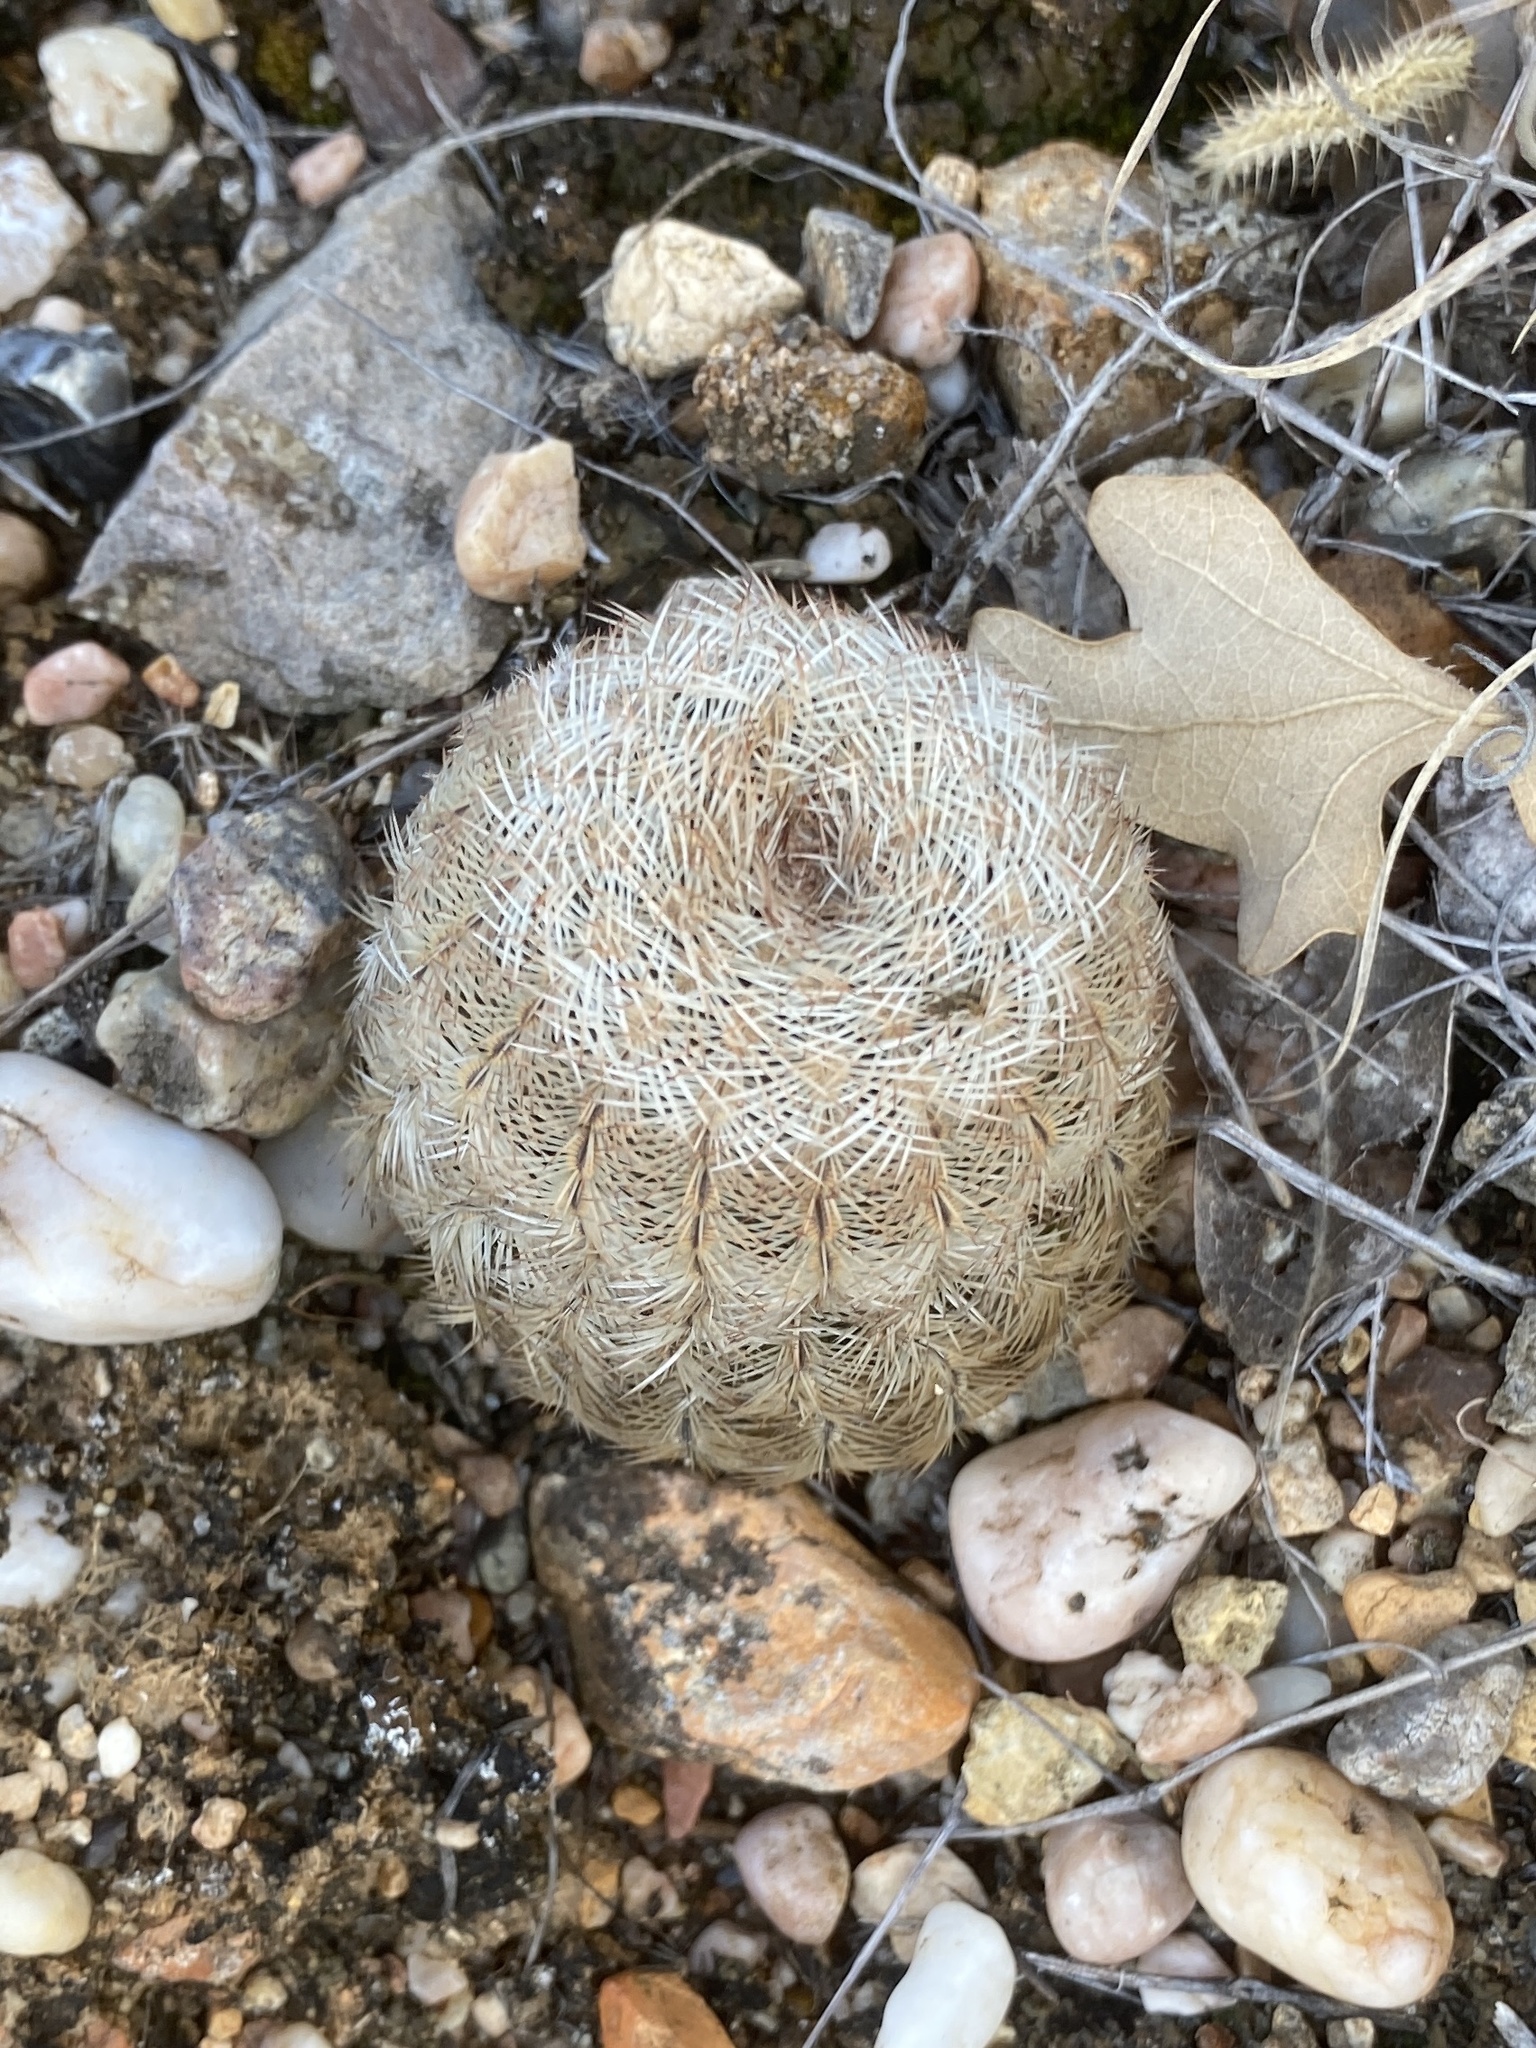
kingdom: Plantae
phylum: Tracheophyta
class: Magnoliopsida
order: Caryophyllales
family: Cactaceae
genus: Echinocereus
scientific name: Echinocereus reichenbachii
